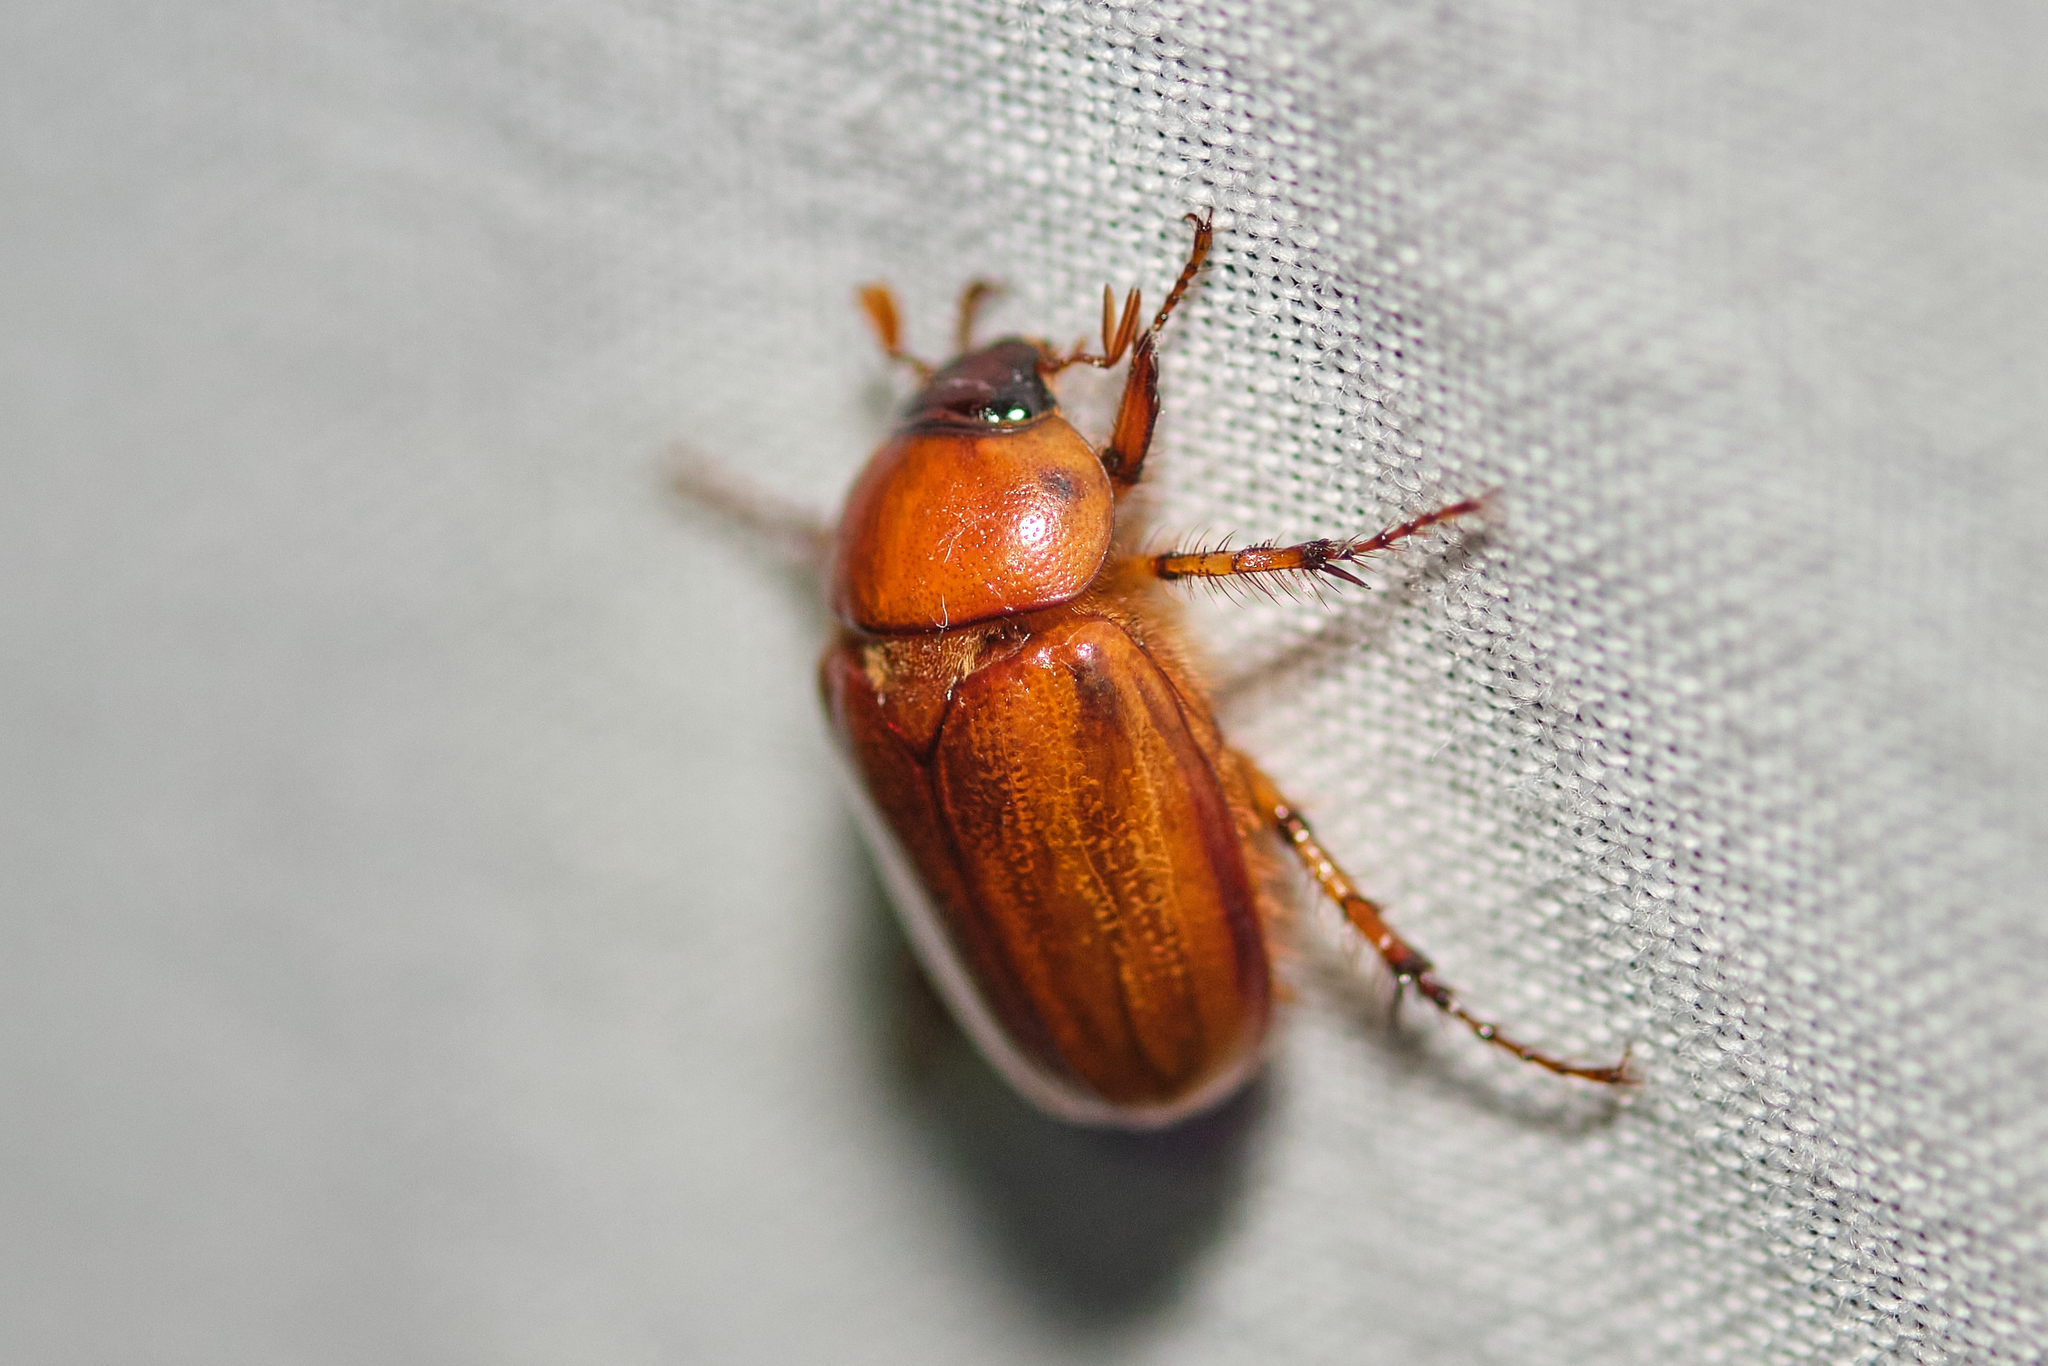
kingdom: Animalia
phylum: Arthropoda
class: Insecta
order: Coleoptera
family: Scarabaeidae
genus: Cyclocephala
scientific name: Cyclocephala lurida
